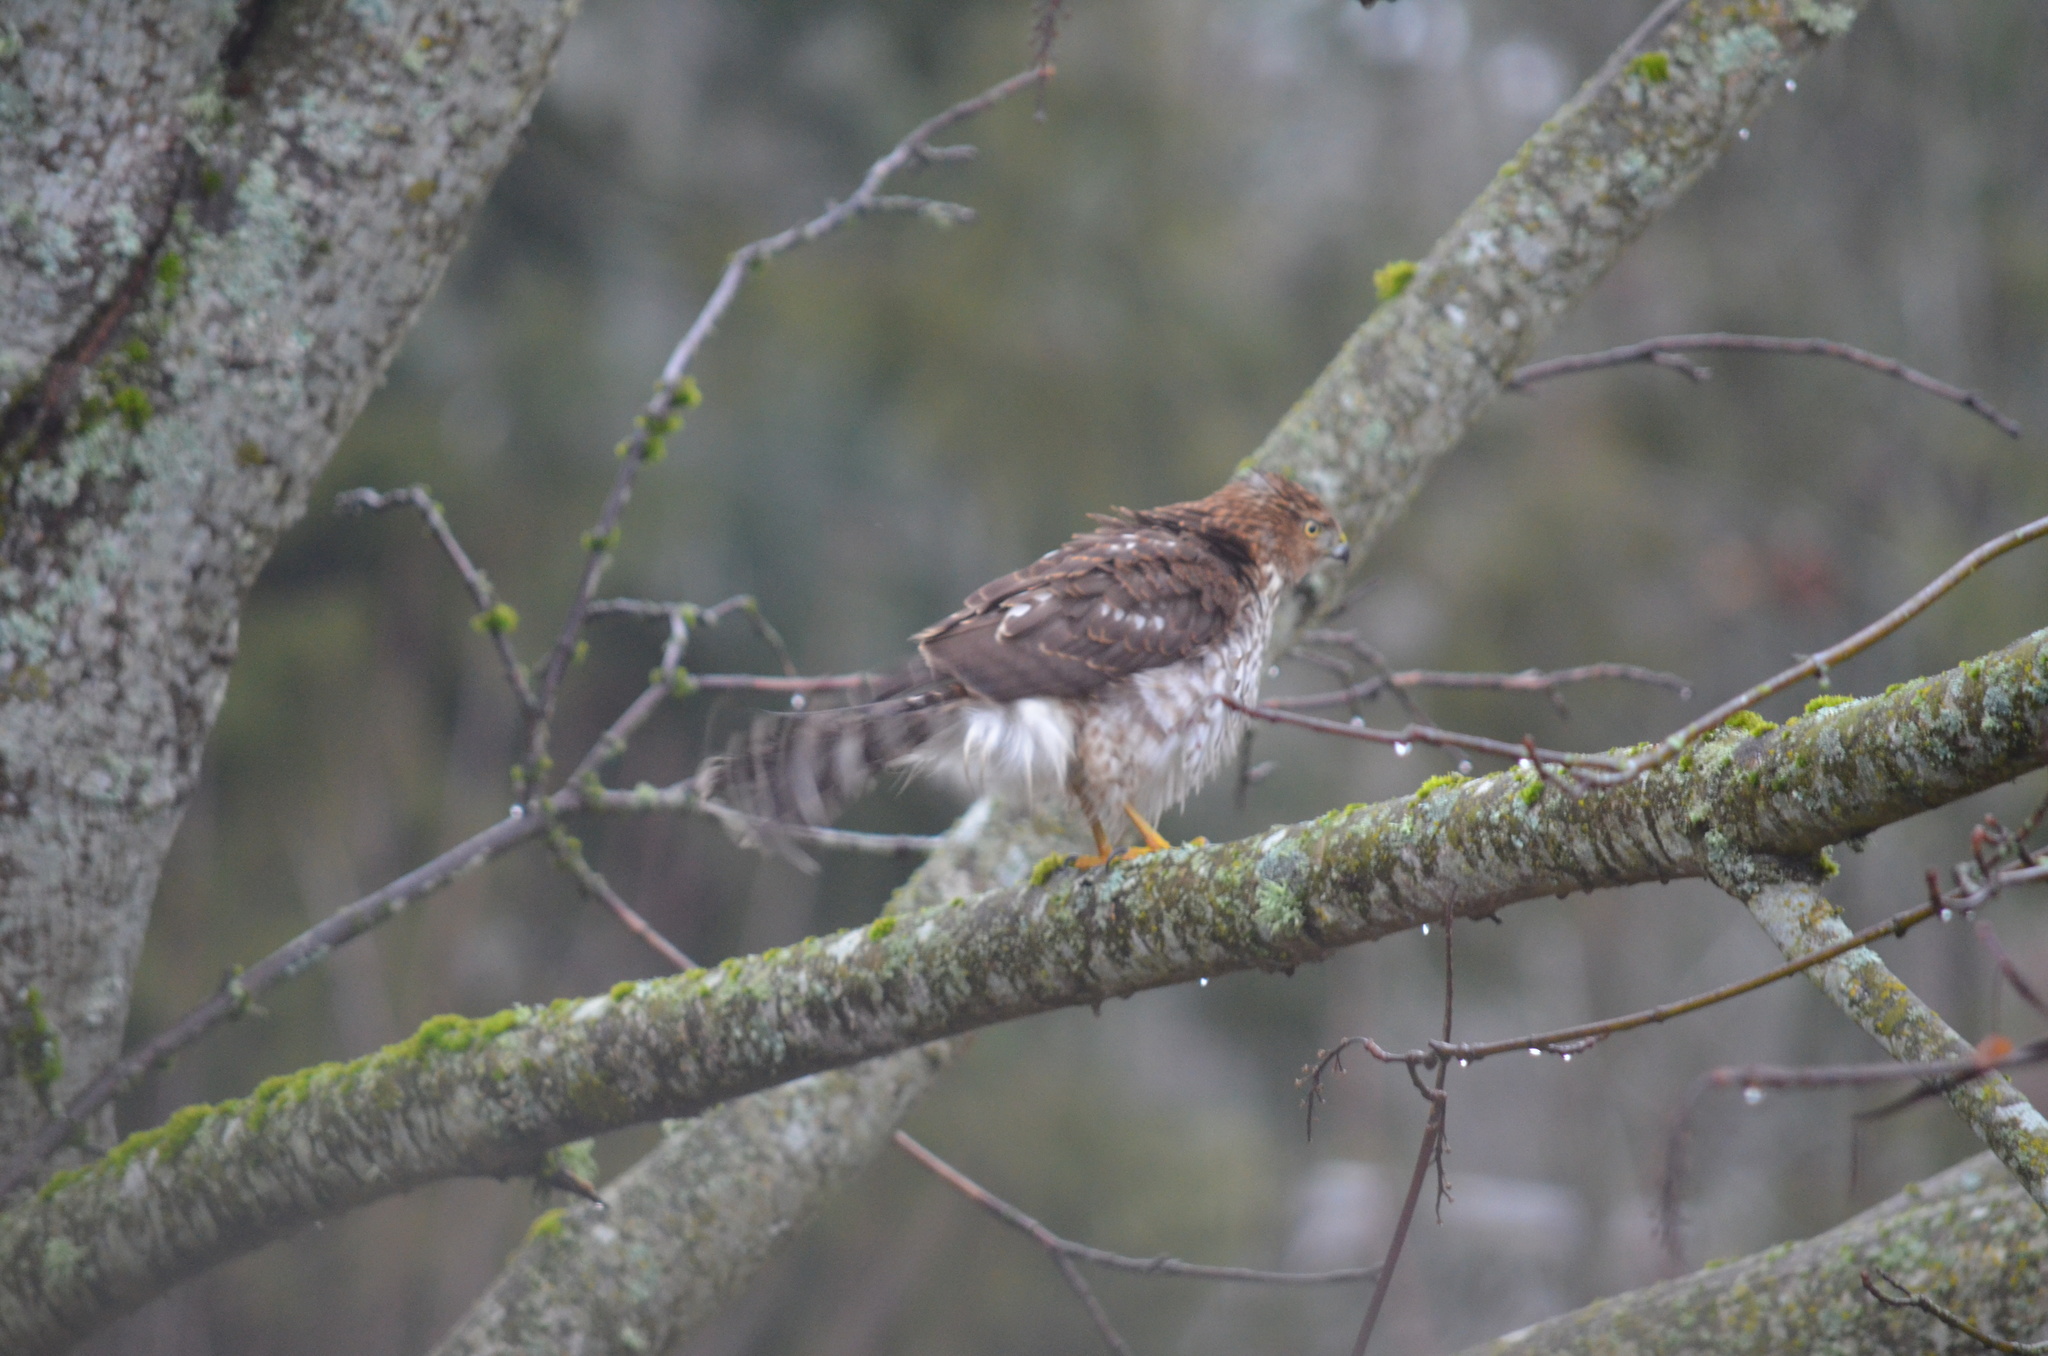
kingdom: Animalia
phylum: Chordata
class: Aves
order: Accipitriformes
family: Accipitridae
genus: Accipiter
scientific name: Accipiter cooperii
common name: Cooper's hawk
